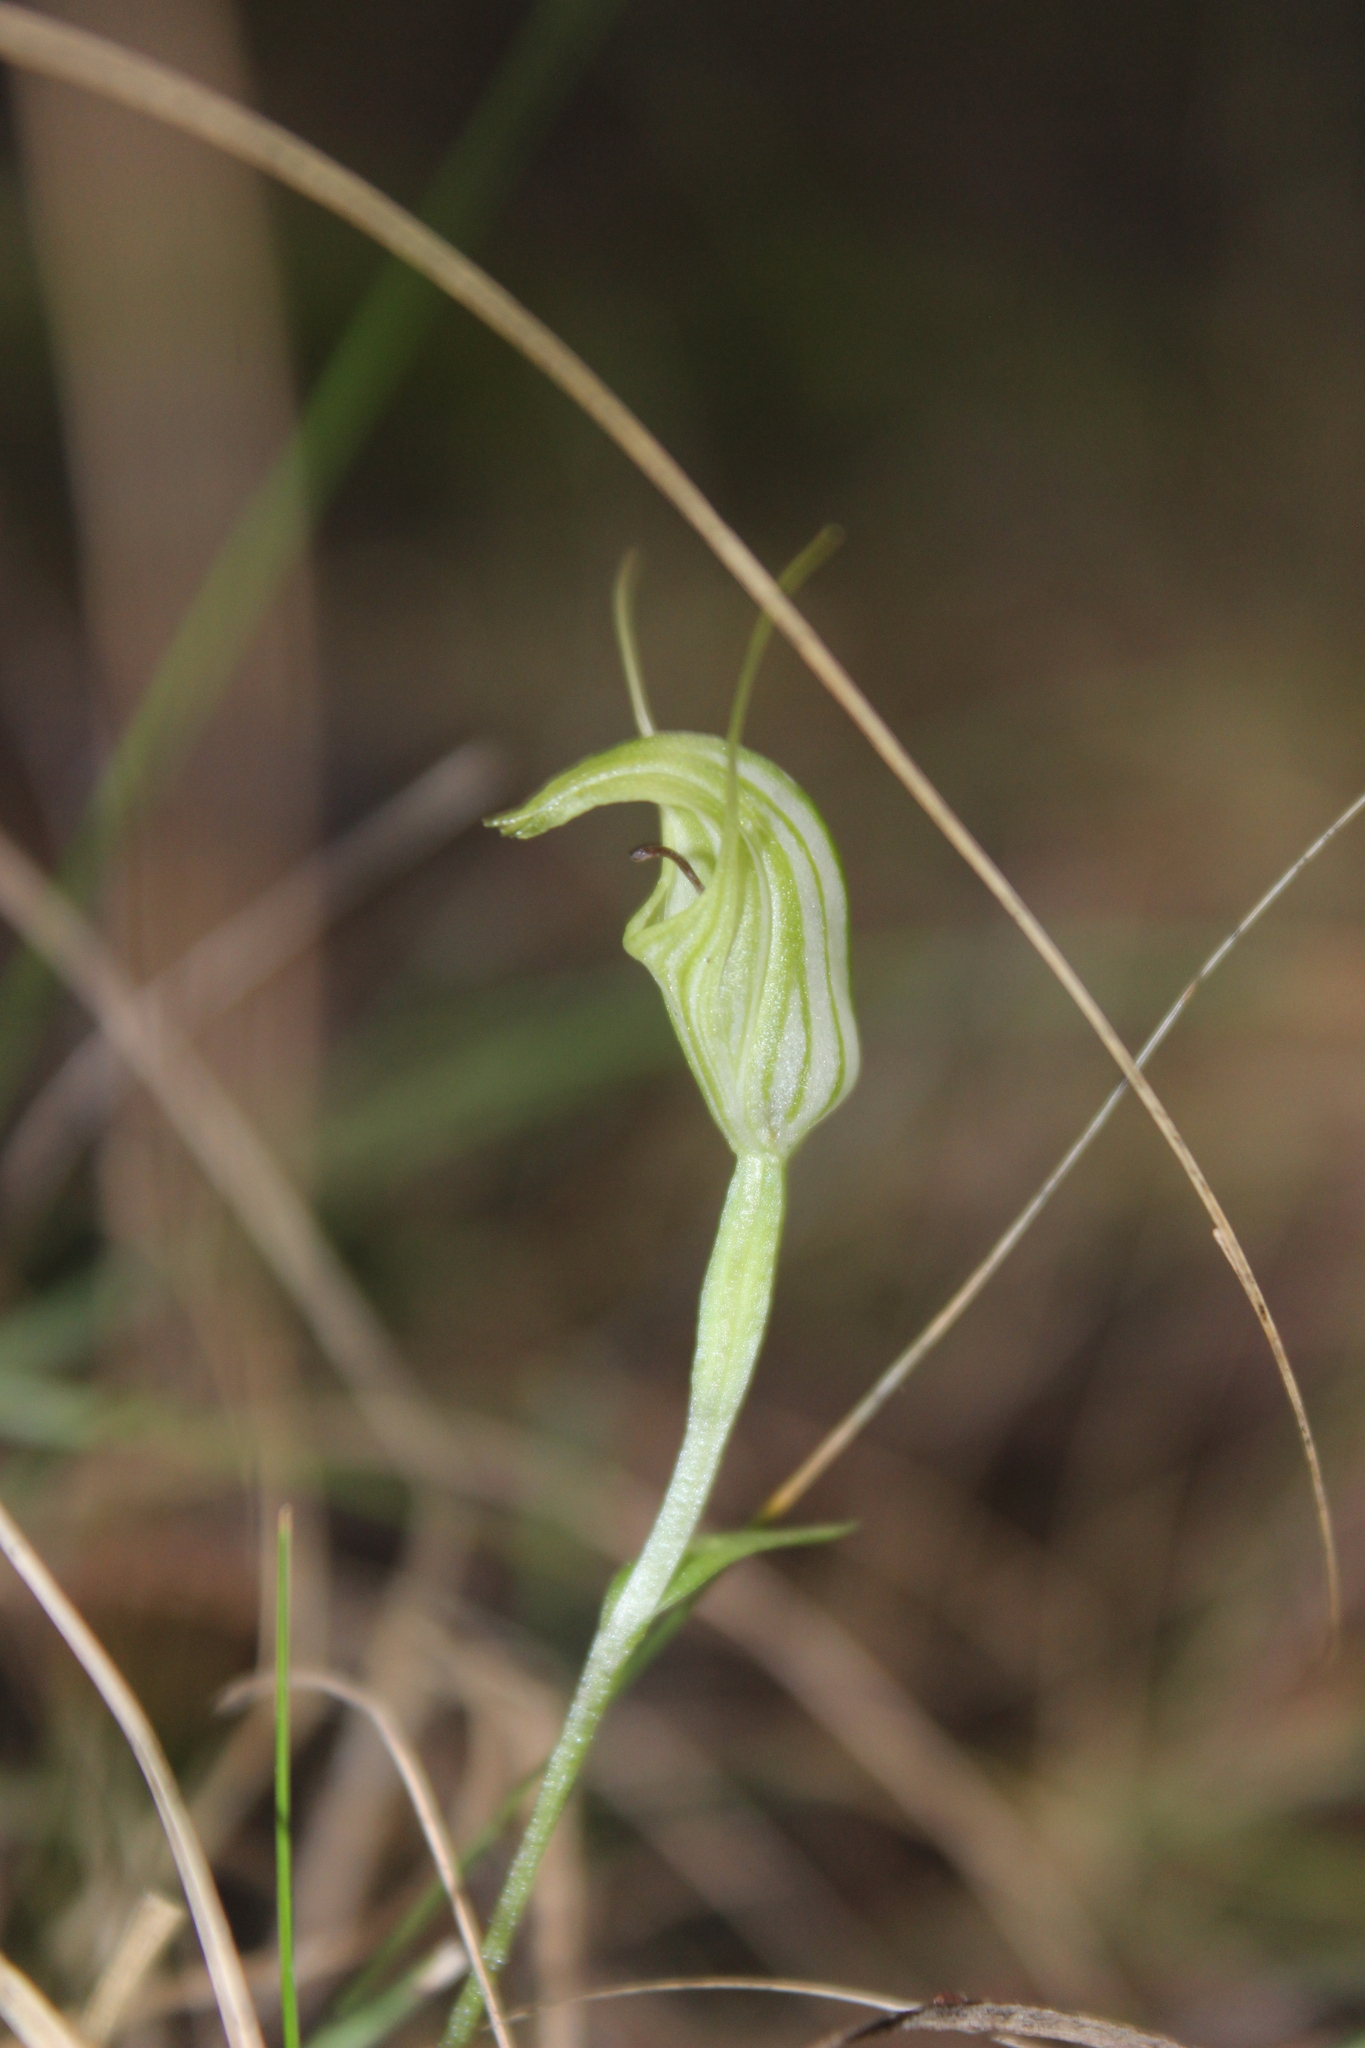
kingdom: Plantae
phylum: Tracheophyta
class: Liliopsida
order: Asparagales
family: Orchidaceae
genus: Pterostylis
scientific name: Pterostylis trullifolia
